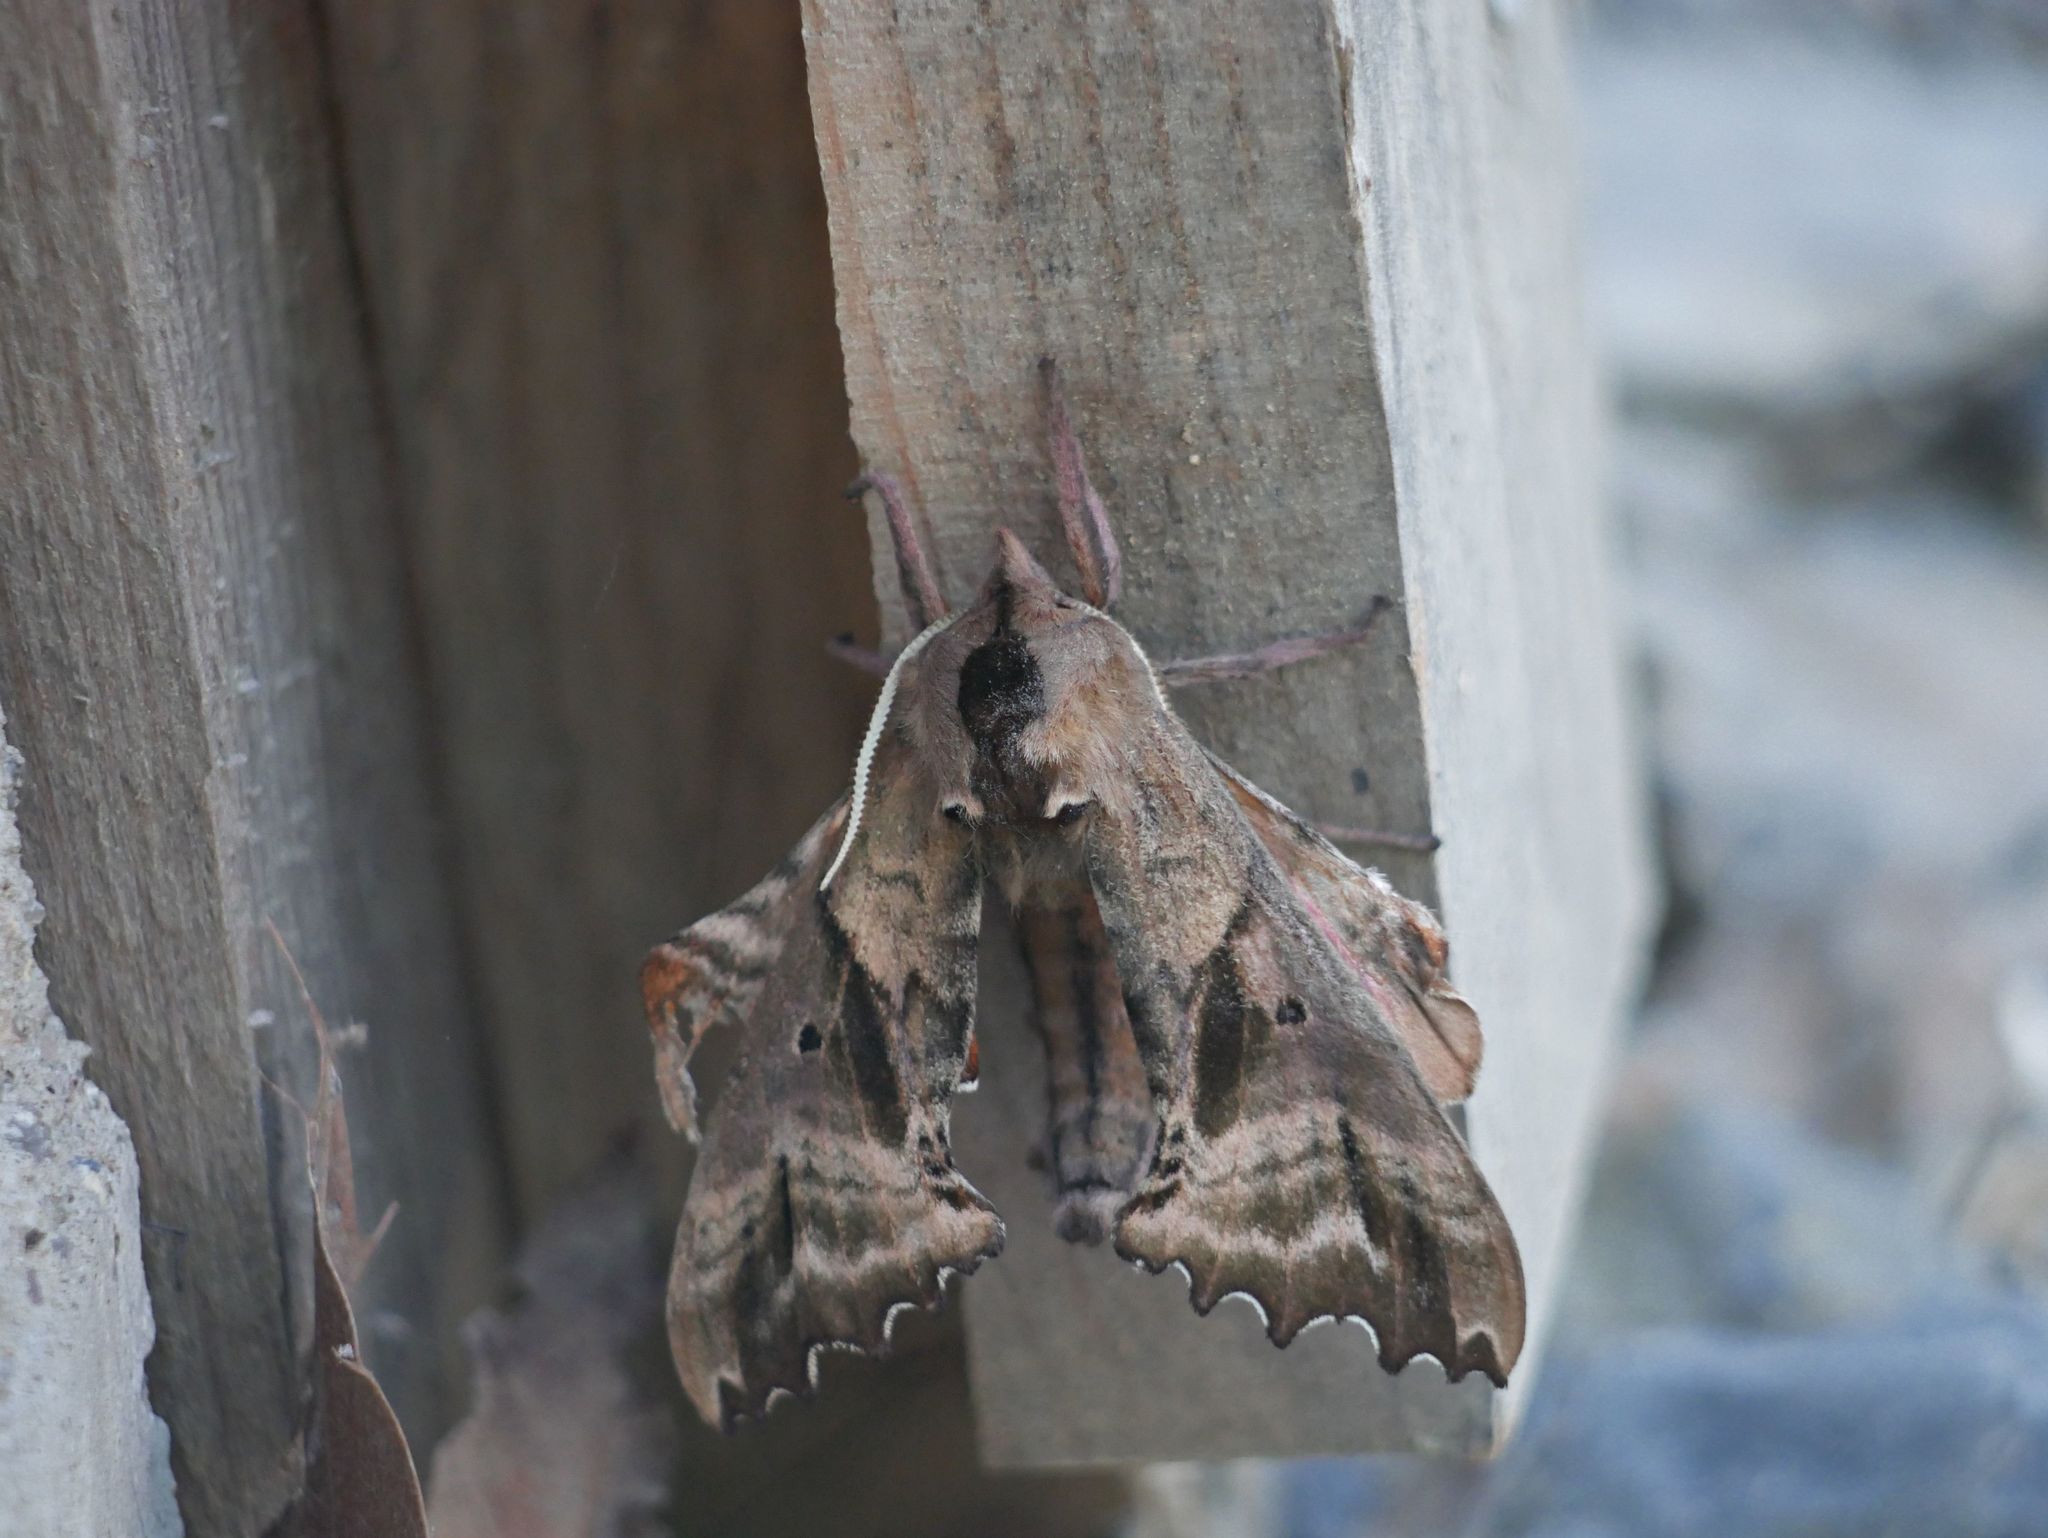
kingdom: Animalia
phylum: Arthropoda
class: Insecta
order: Lepidoptera
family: Sphingidae
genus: Paonias
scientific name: Paonias excaecata
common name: Blind-eyed sphinx
